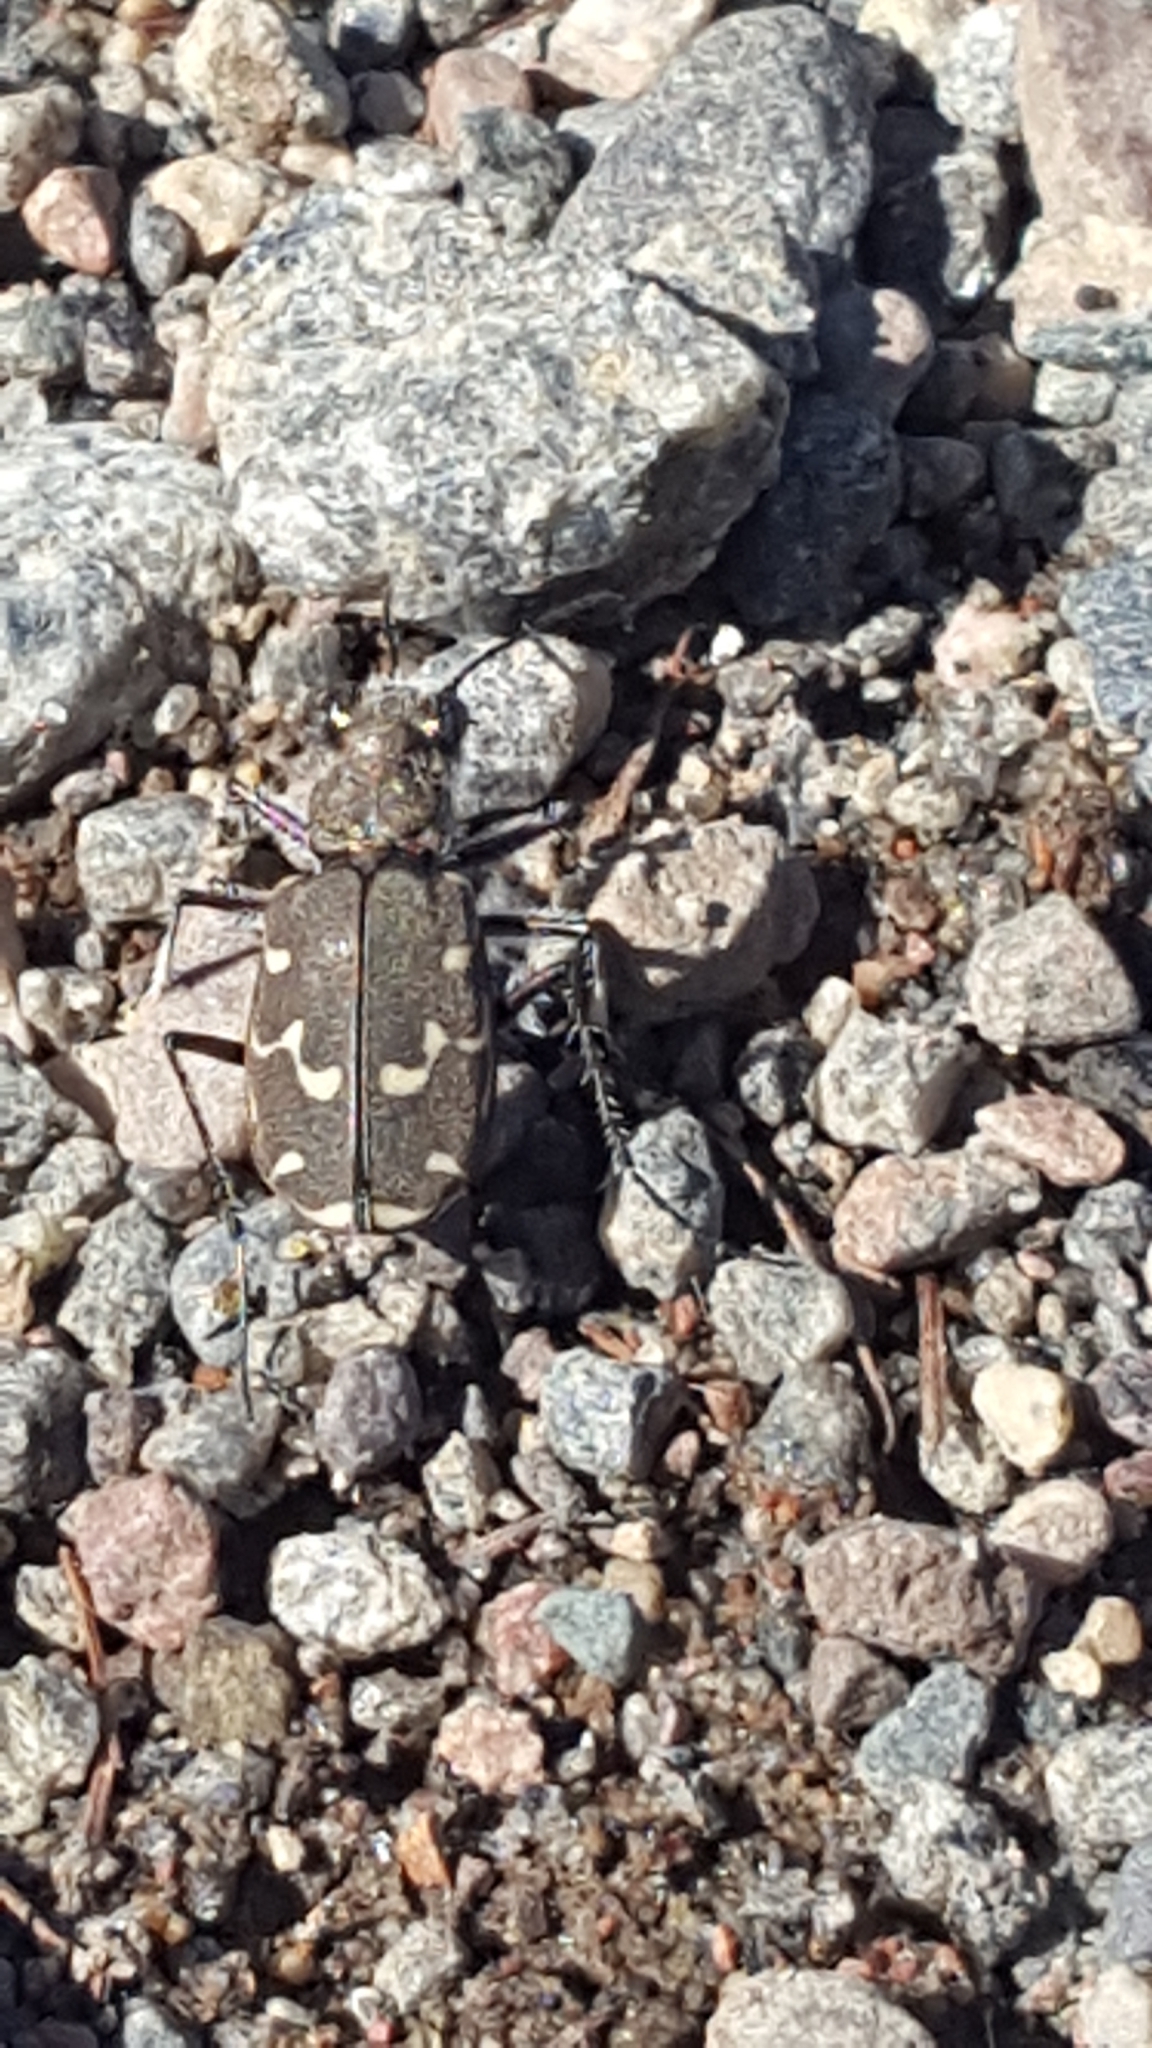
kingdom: Animalia
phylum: Arthropoda
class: Insecta
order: Coleoptera
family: Carabidae
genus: Cicindela
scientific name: Cicindela duodecimguttata
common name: Twelve-spotted tiger beetle
